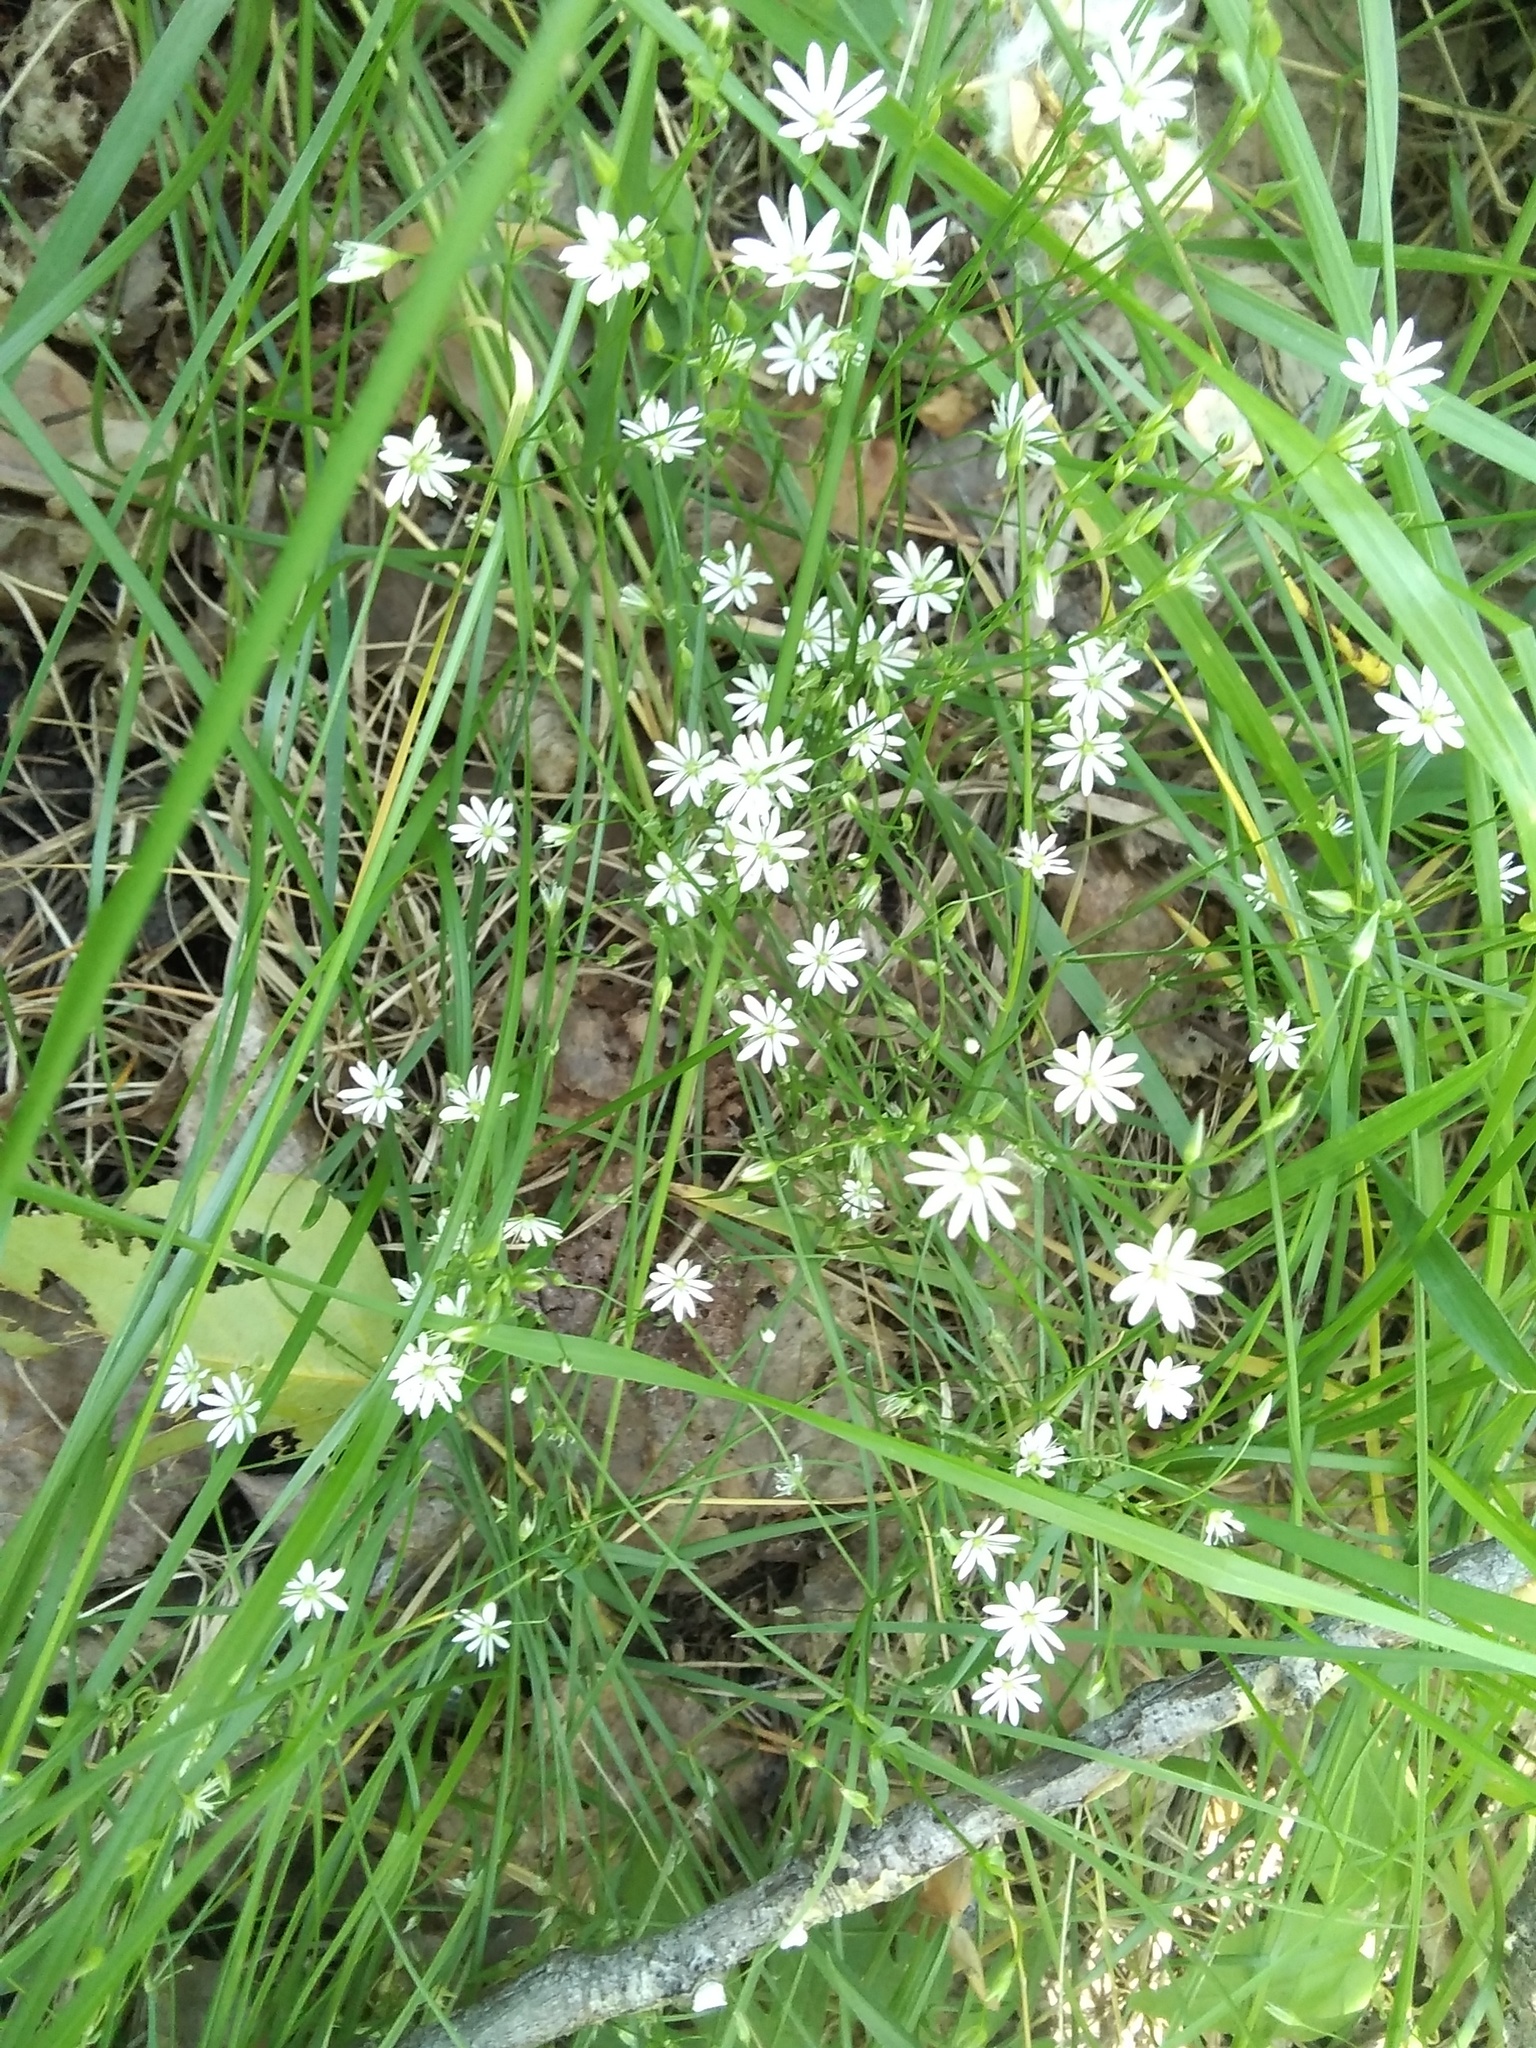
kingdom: Plantae
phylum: Tracheophyta
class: Magnoliopsida
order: Caryophyllales
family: Caryophyllaceae
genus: Stellaria
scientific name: Stellaria graminea
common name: Grass-like starwort
